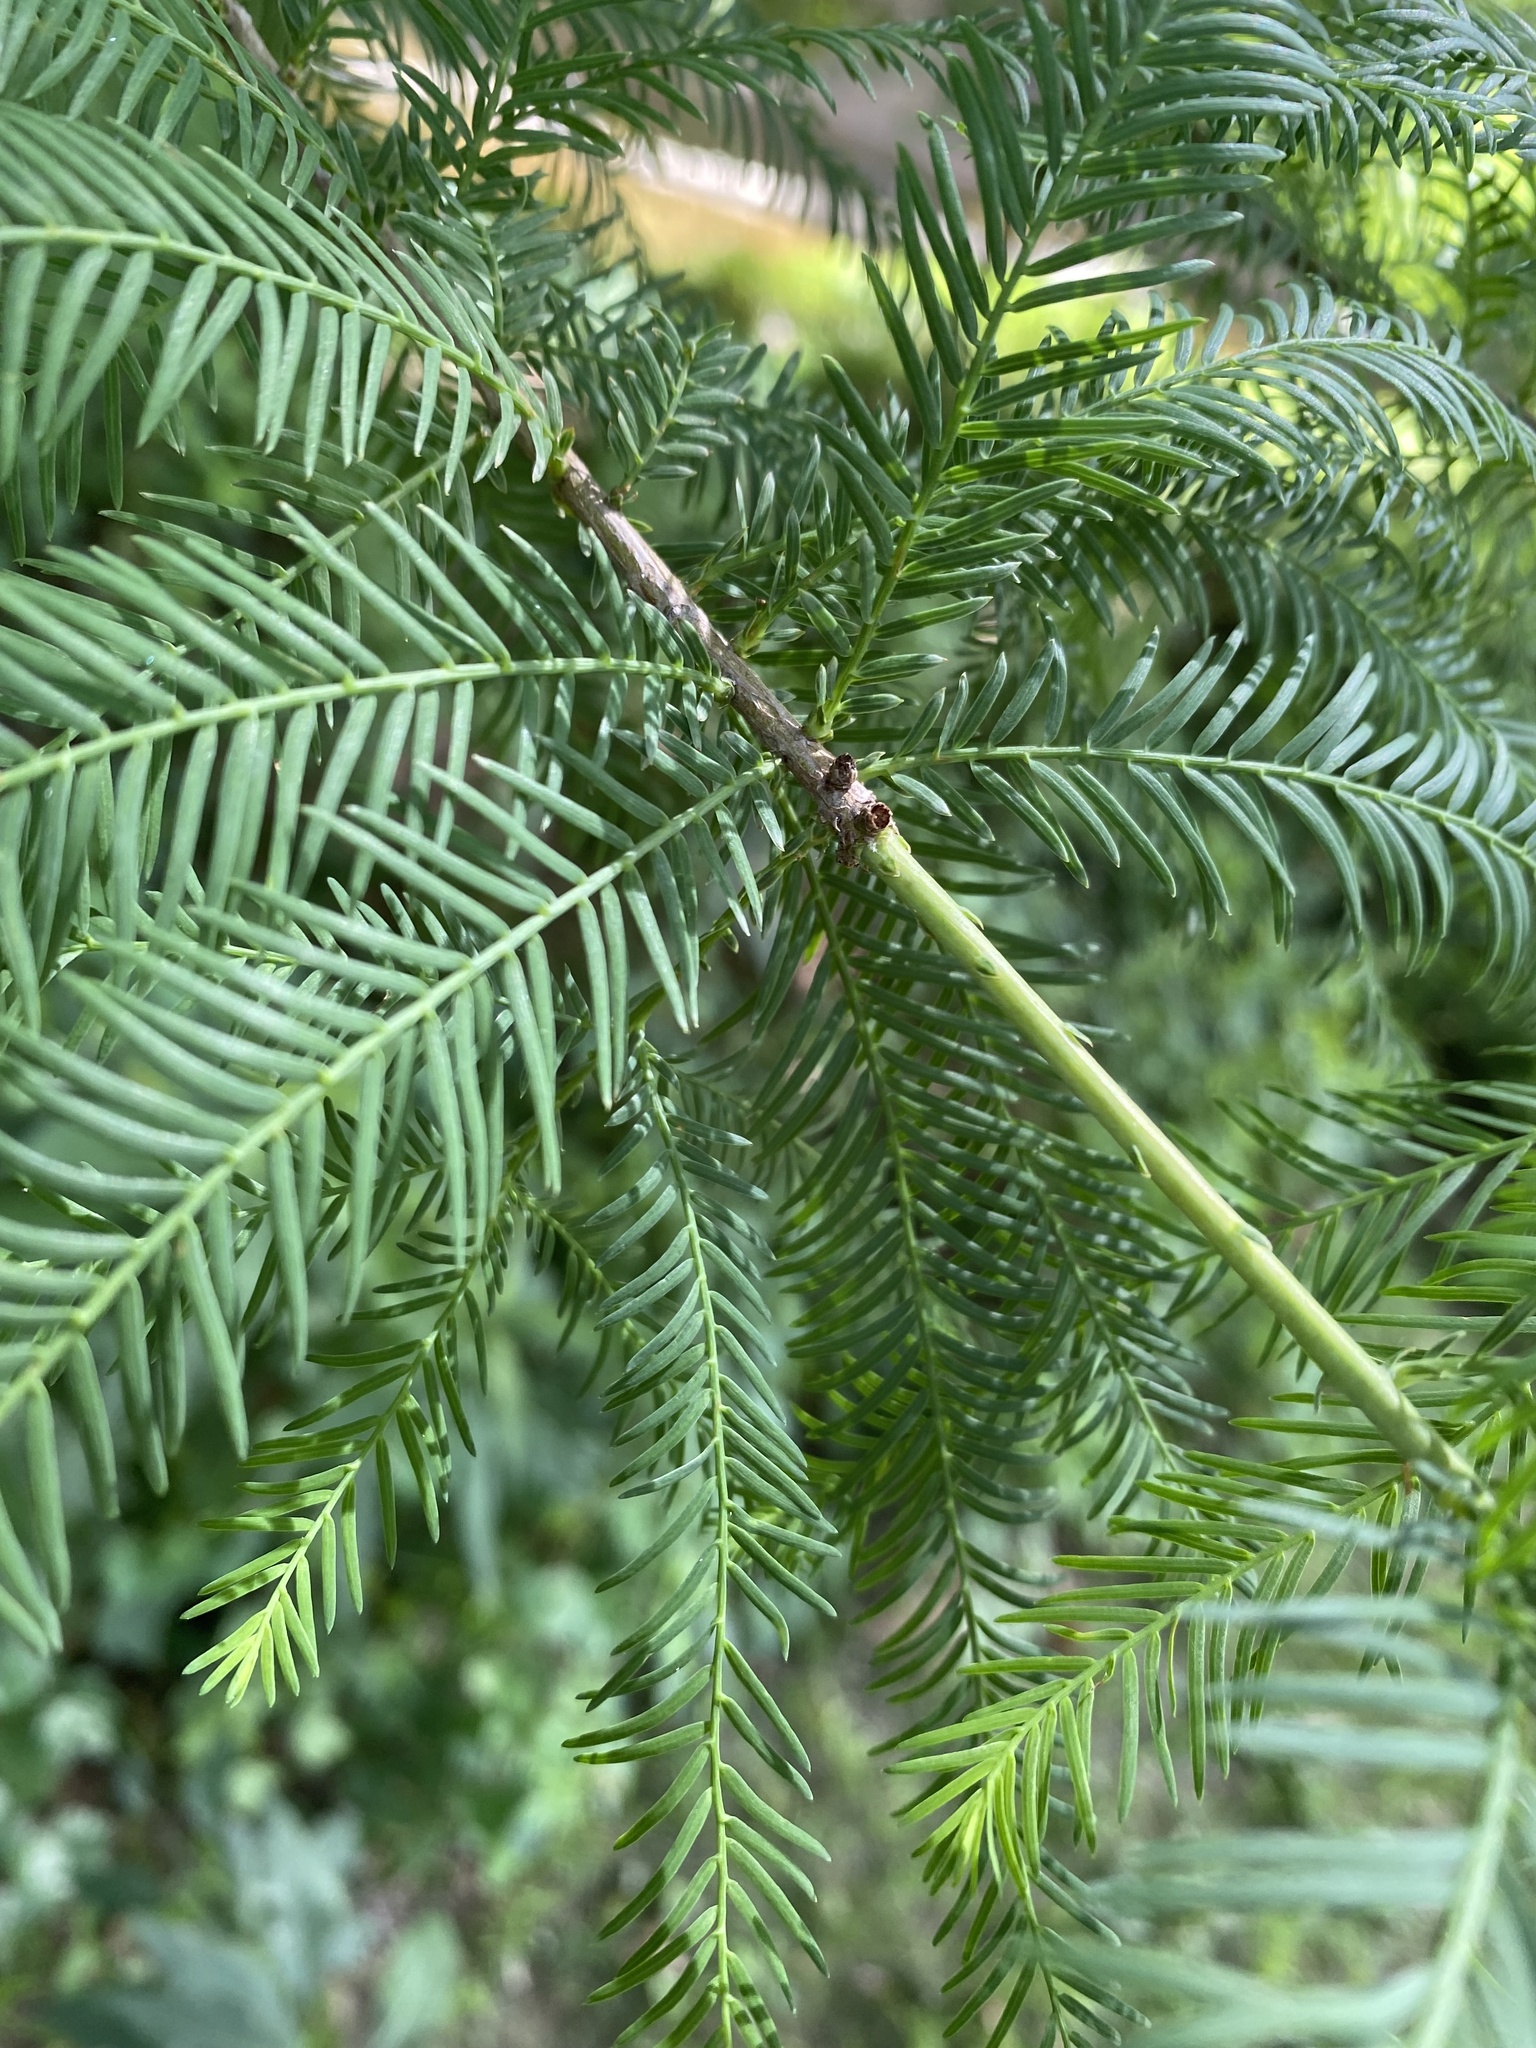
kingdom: Plantae
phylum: Tracheophyta
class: Pinopsida
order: Pinales
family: Cupressaceae
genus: Taxodium
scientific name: Taxodium distichum
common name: Bald cypress
